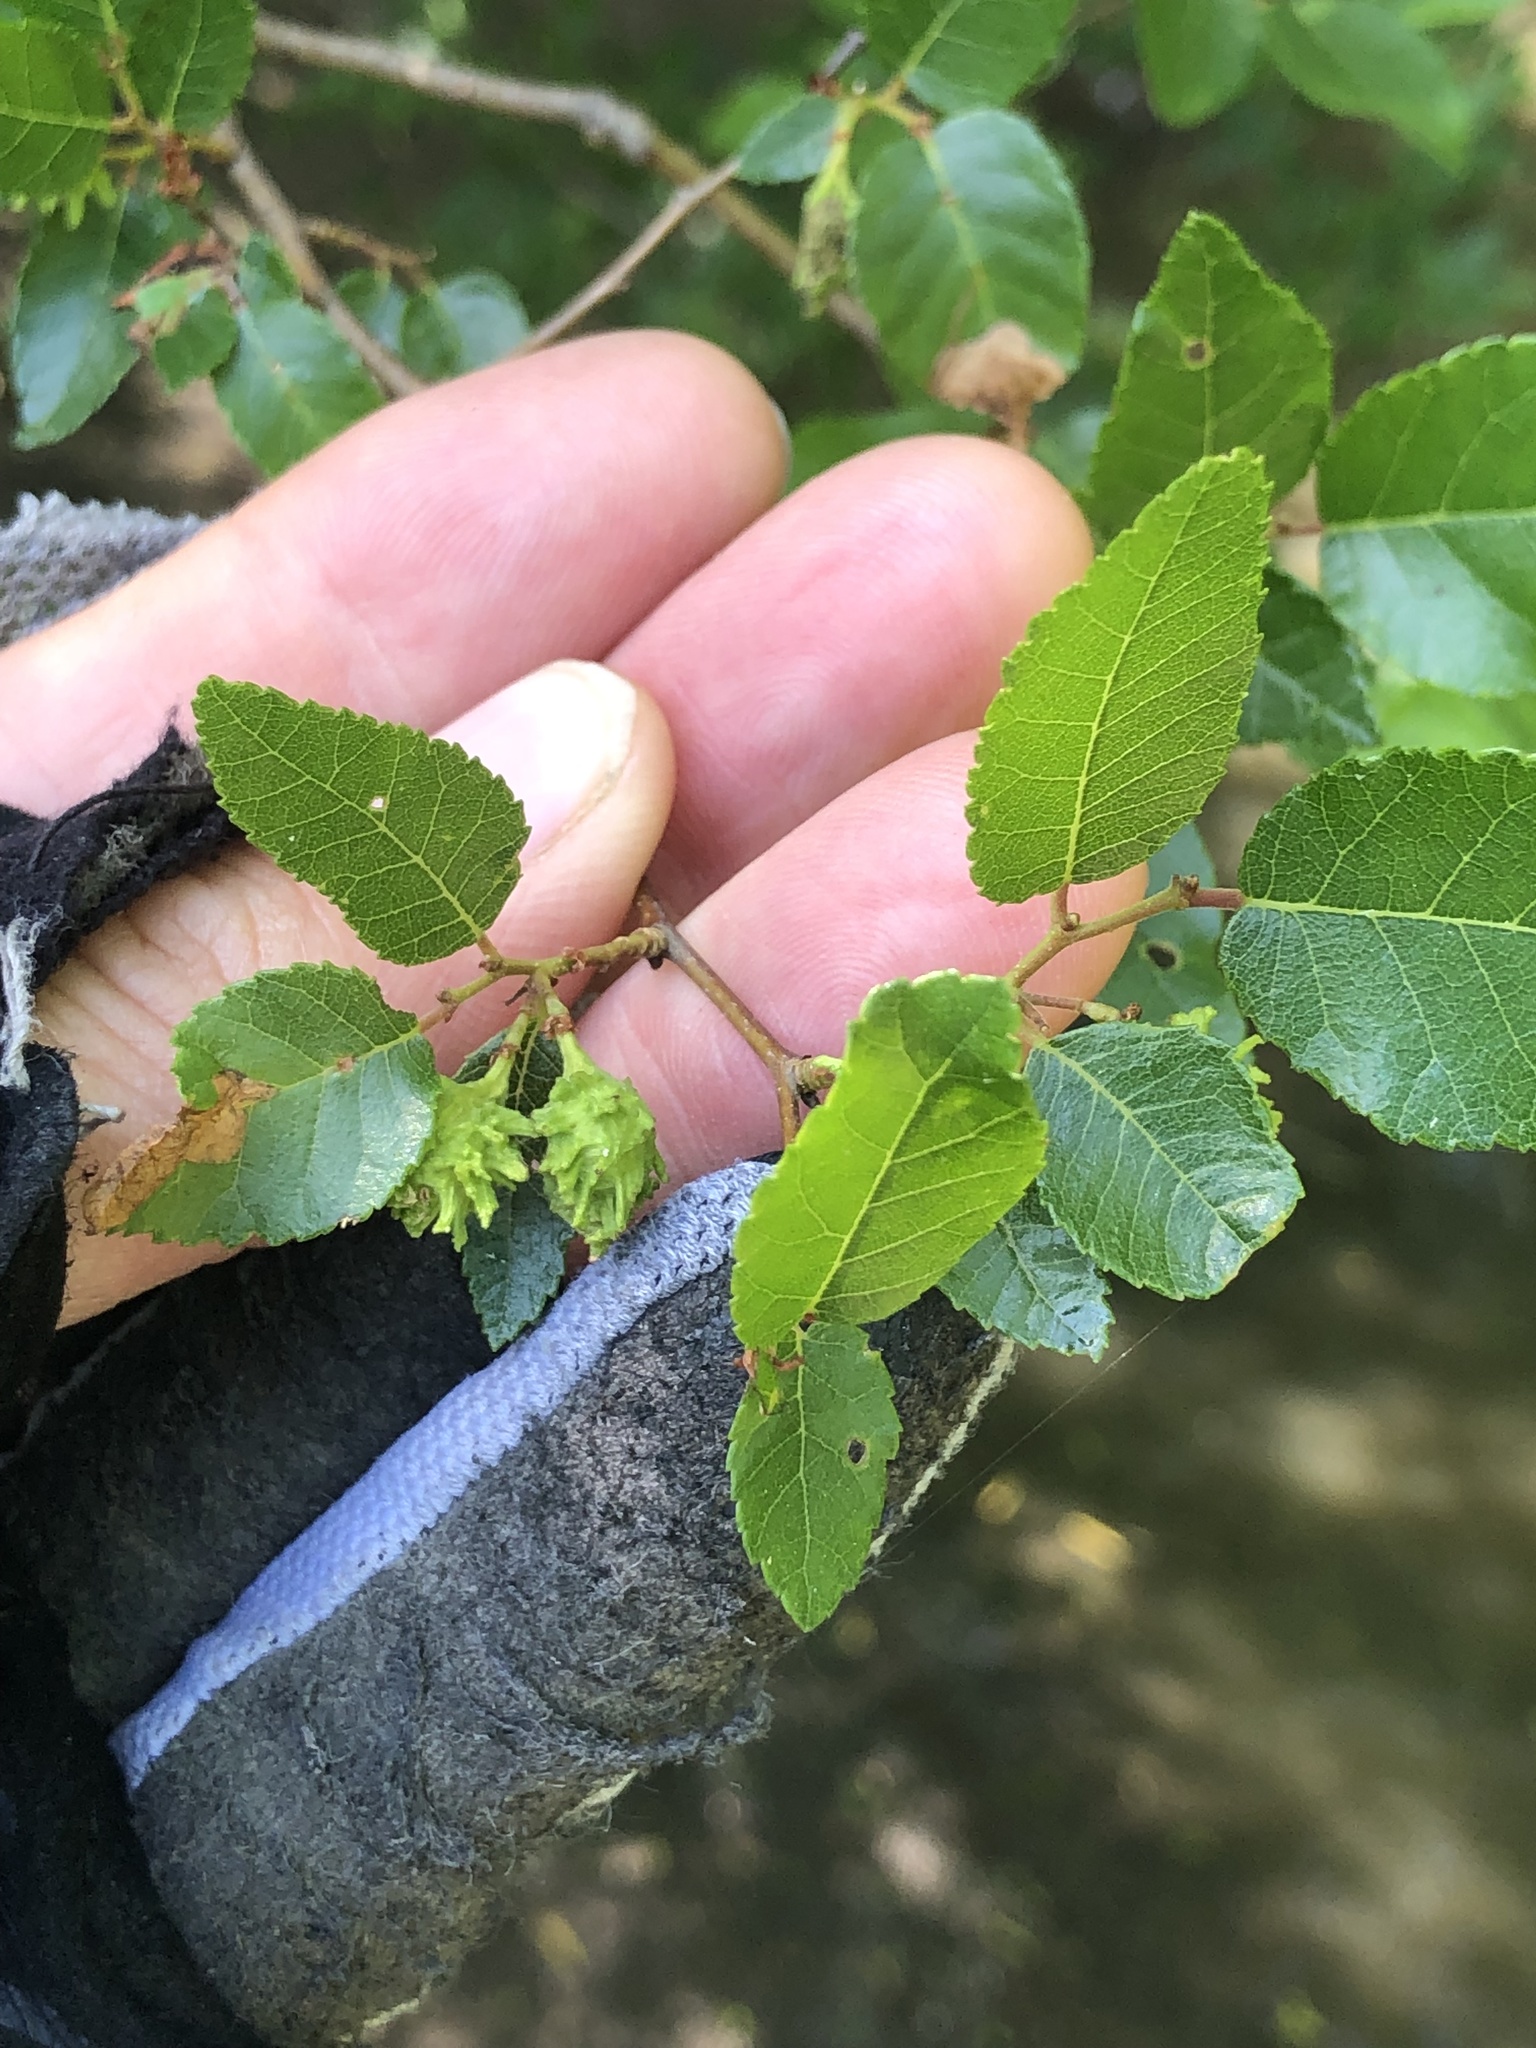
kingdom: Plantae
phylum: Tracheophyta
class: Magnoliopsida
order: Rosales
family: Ulmaceae
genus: Planera
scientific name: Planera aquatica
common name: Water-elm
